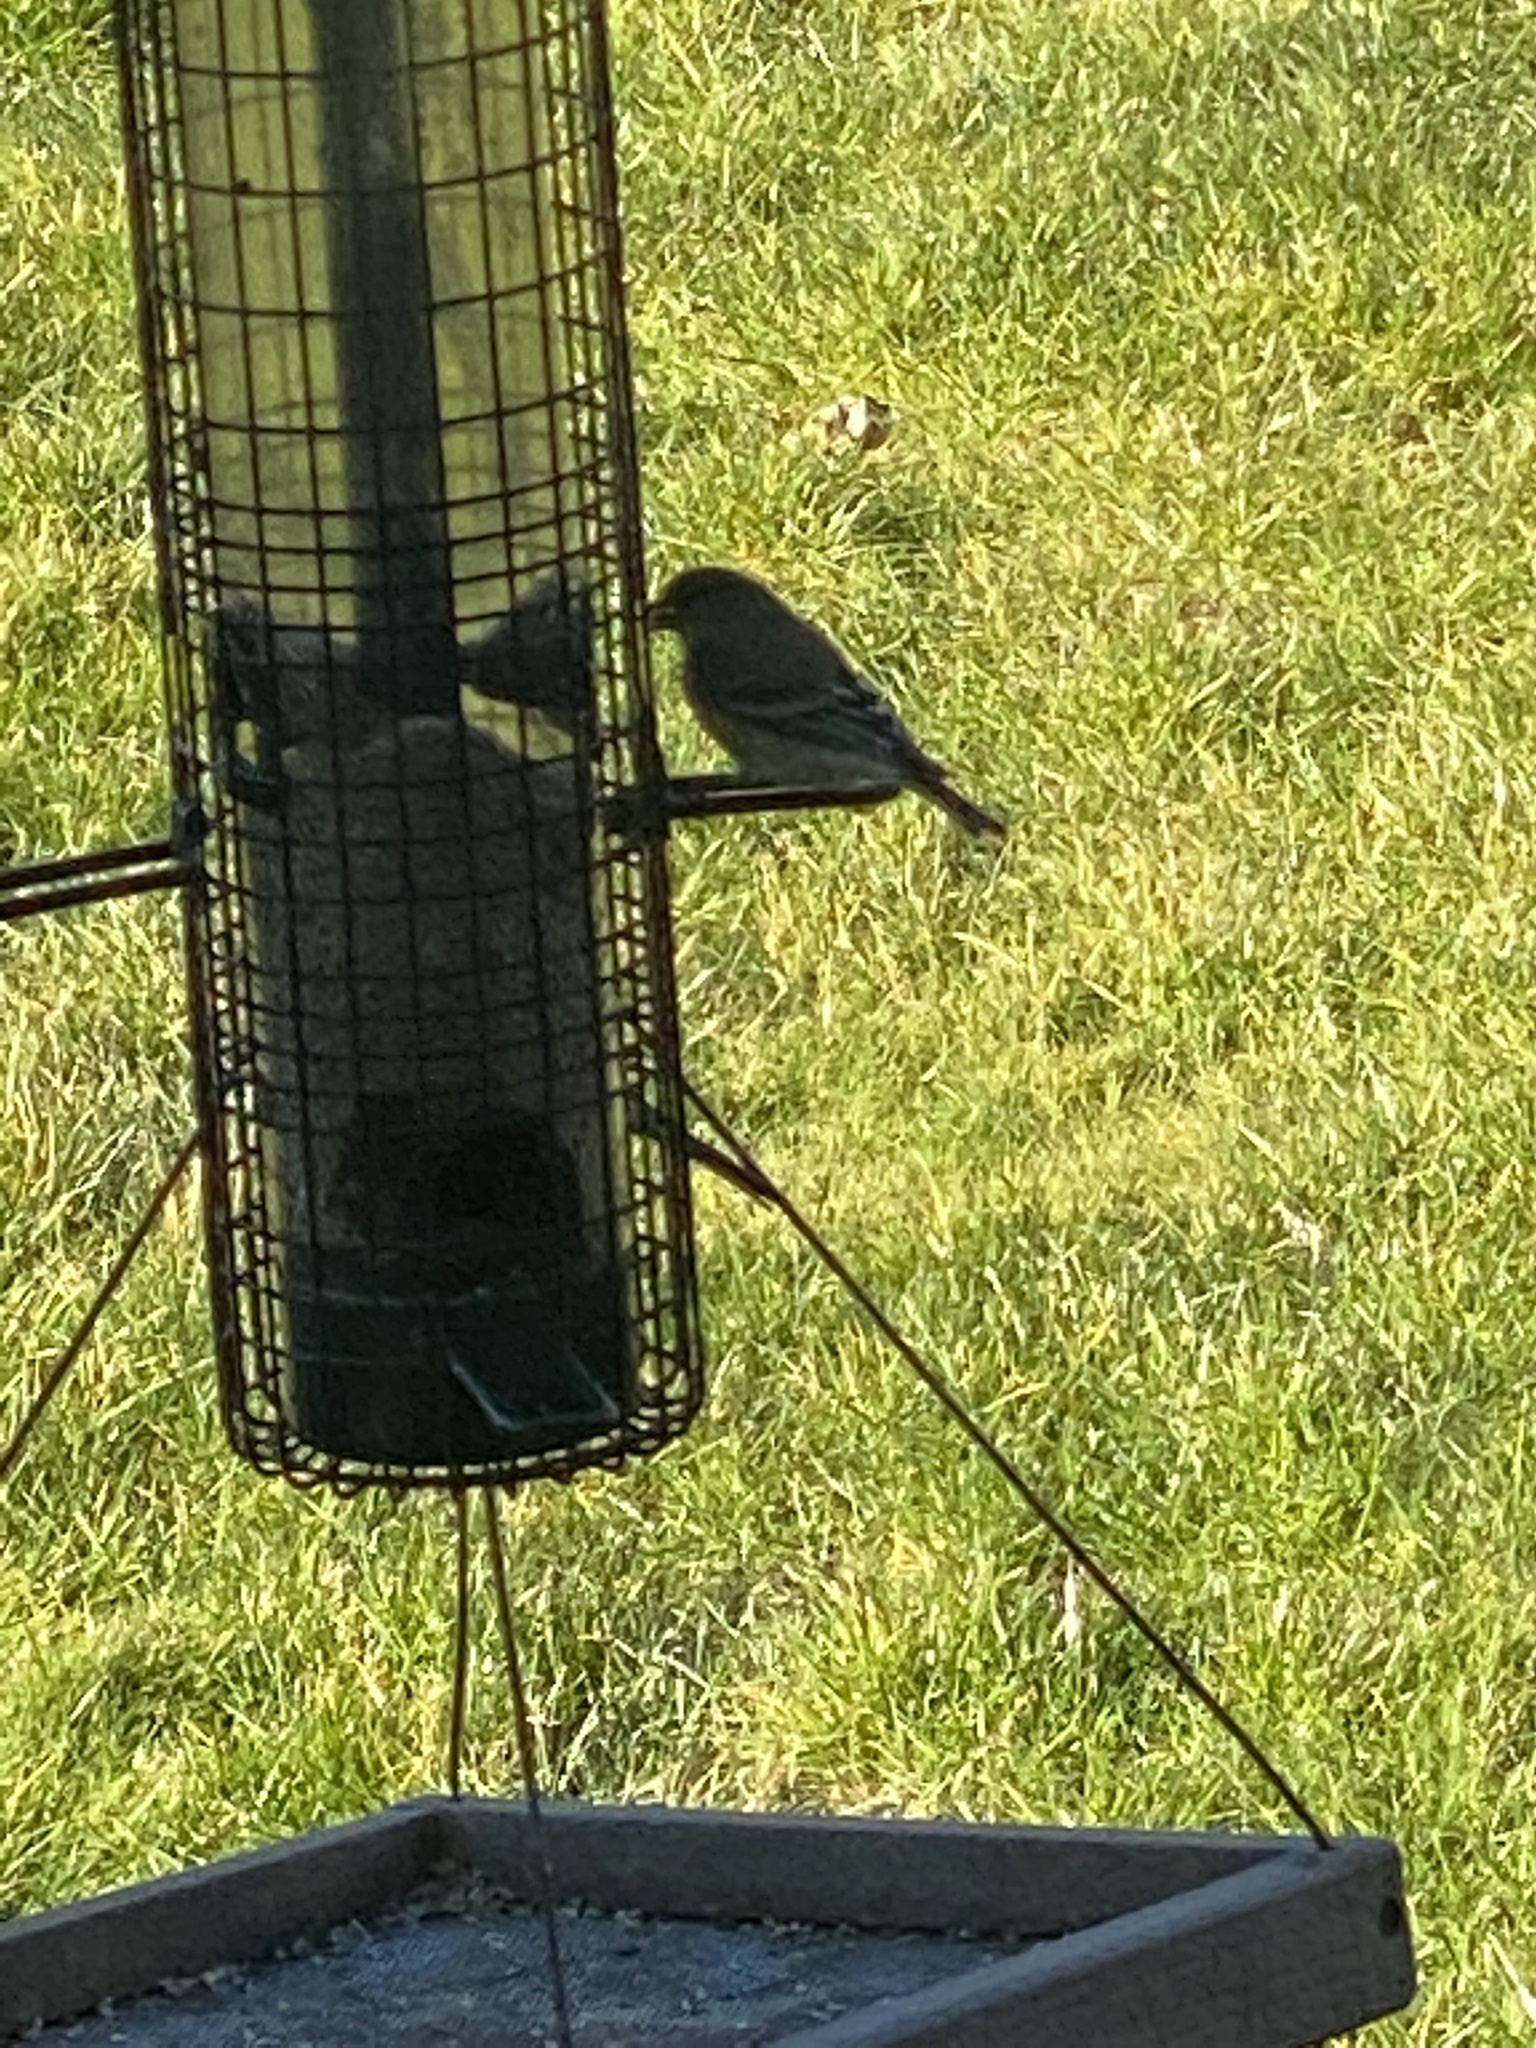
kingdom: Animalia
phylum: Chordata
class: Aves
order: Passeriformes
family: Fringillidae
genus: Spinus
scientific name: Spinus psaltria
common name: Lesser goldfinch
